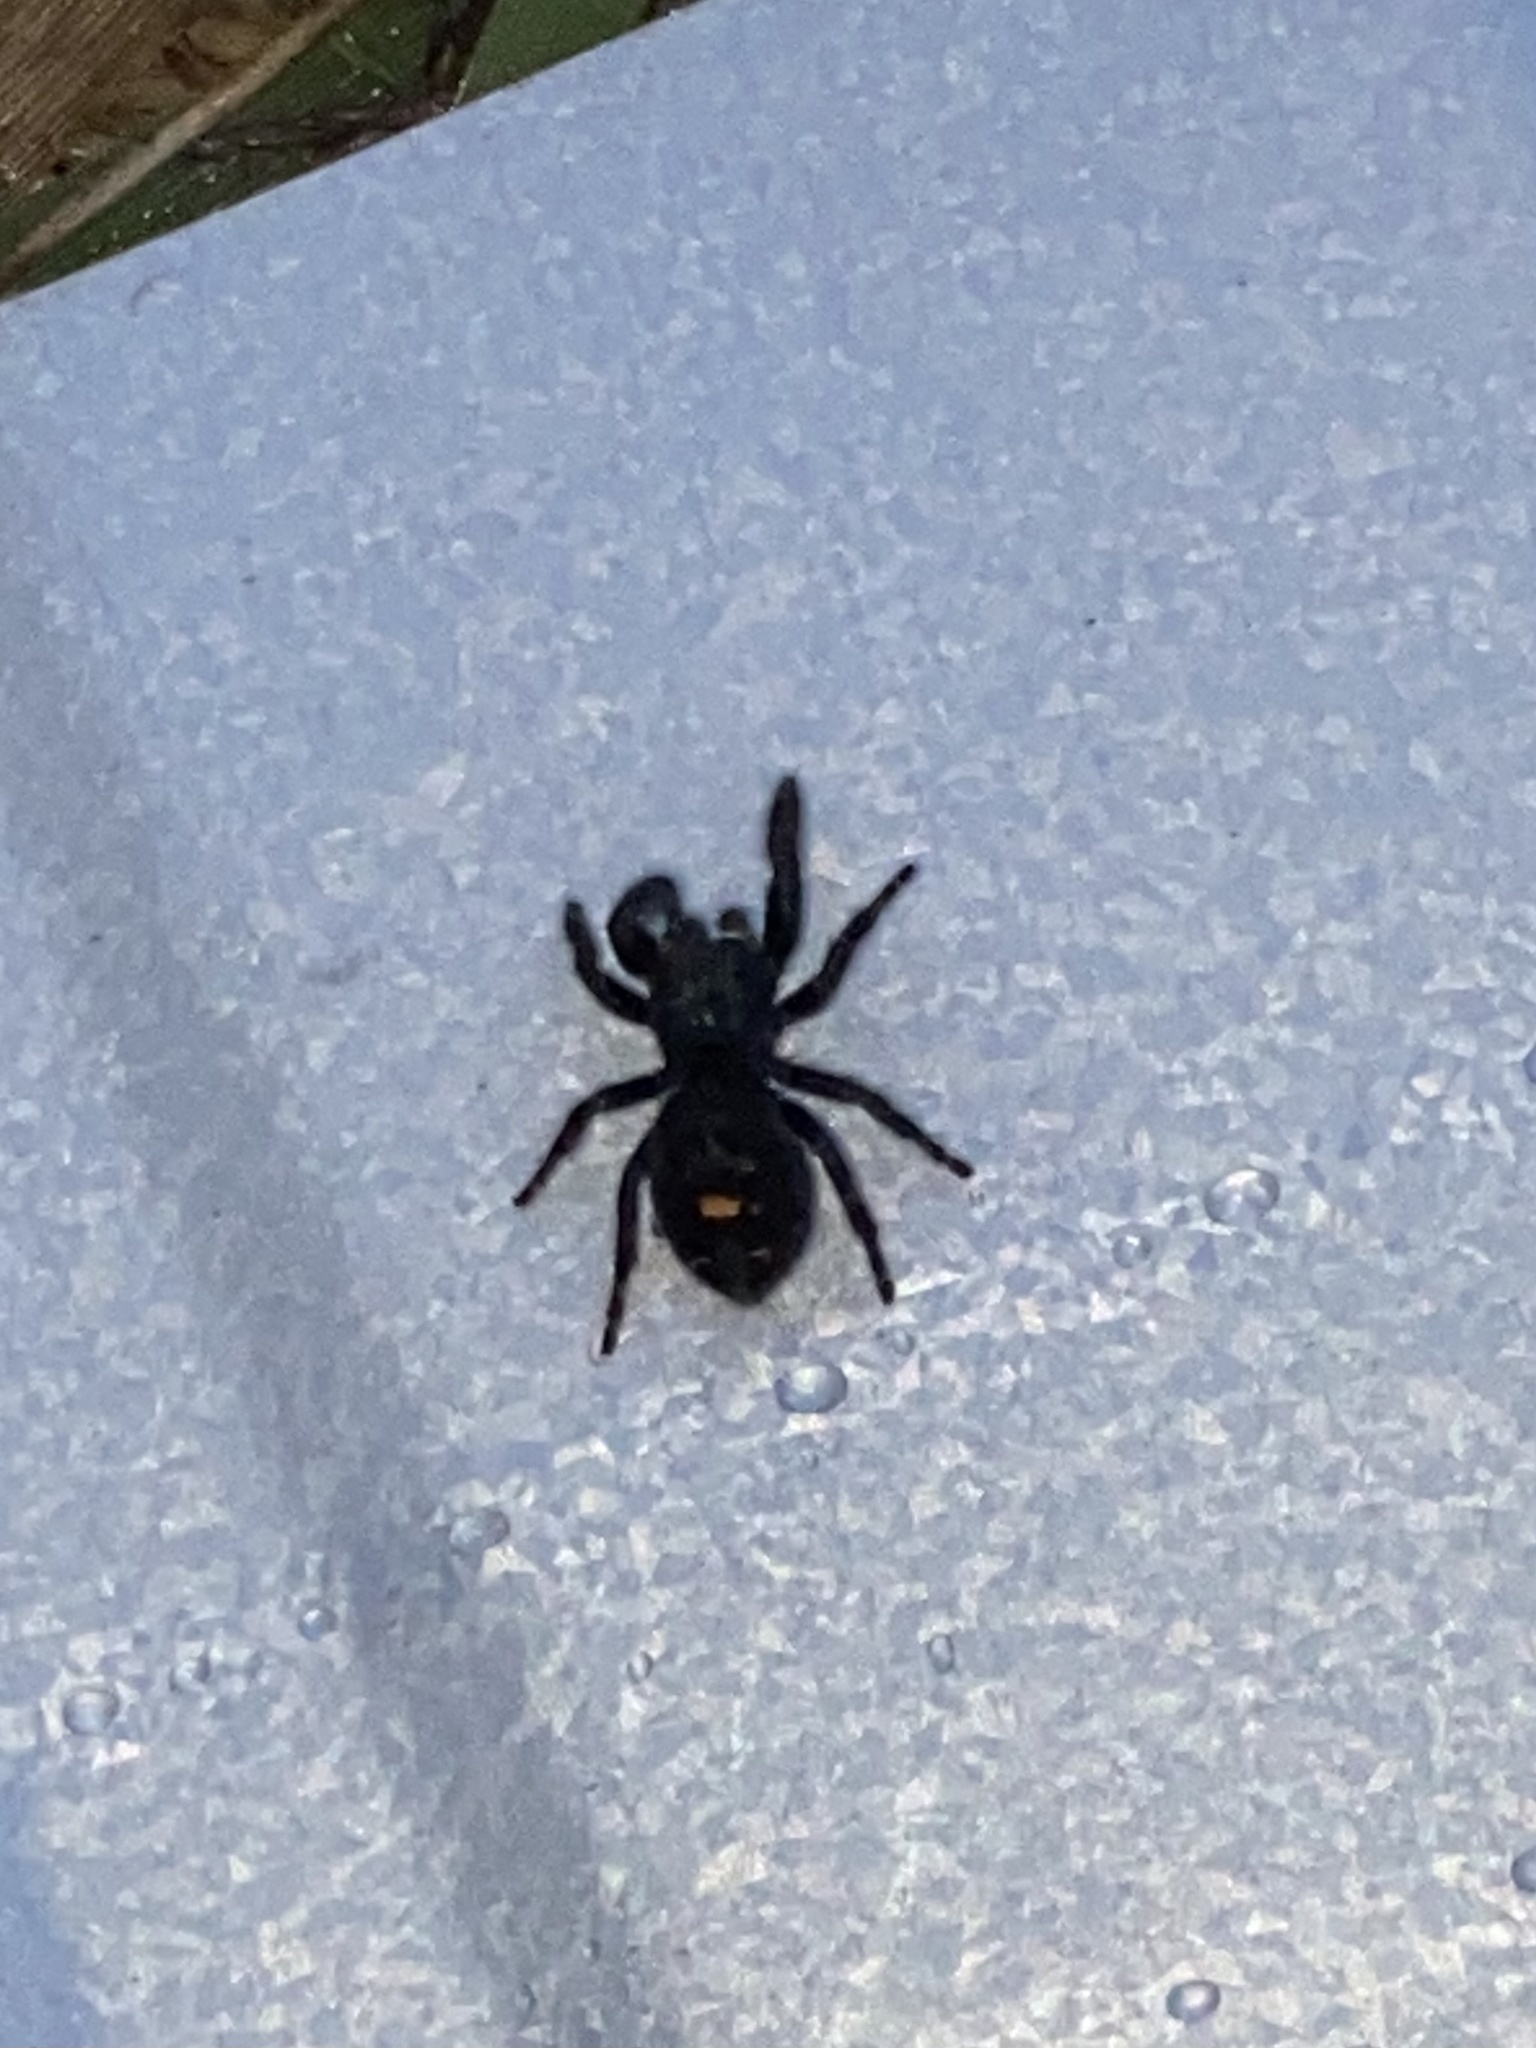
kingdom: Animalia
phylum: Arthropoda
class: Arachnida
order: Araneae
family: Salticidae
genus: Phidippus
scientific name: Phidippus audax
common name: Bold jumper
